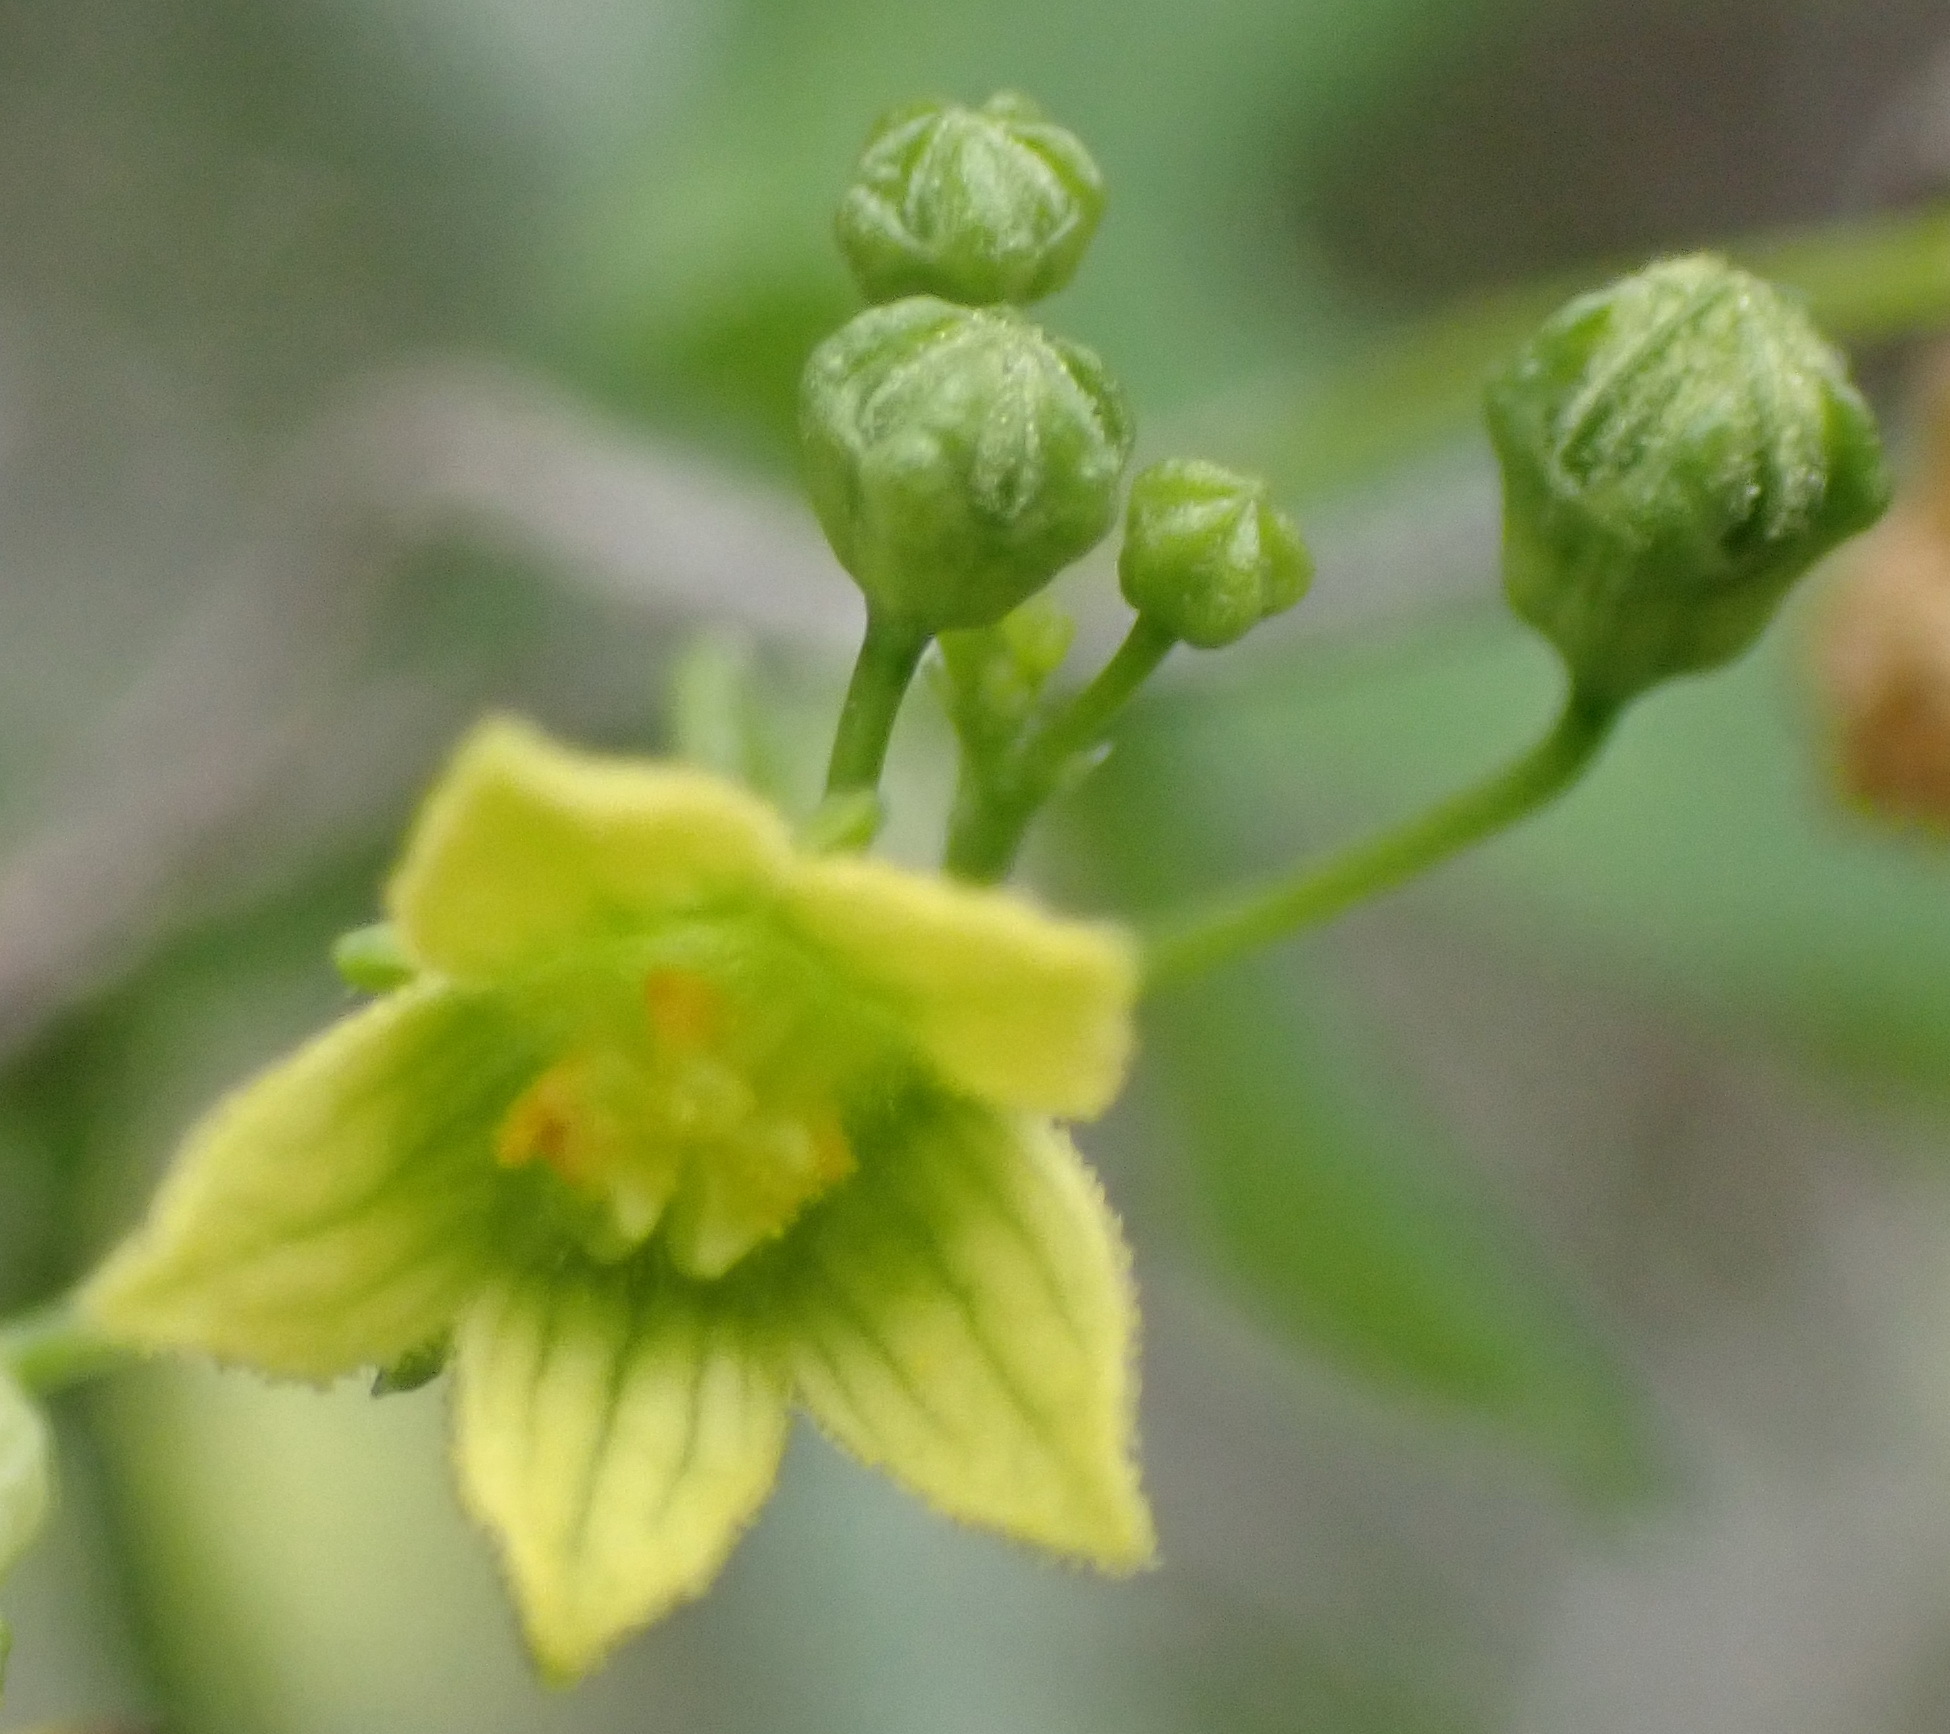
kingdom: Plantae
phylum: Tracheophyta
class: Magnoliopsida
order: Cucurbitales
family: Cucurbitaceae
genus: Kedrostis
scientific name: Kedrostis nana
